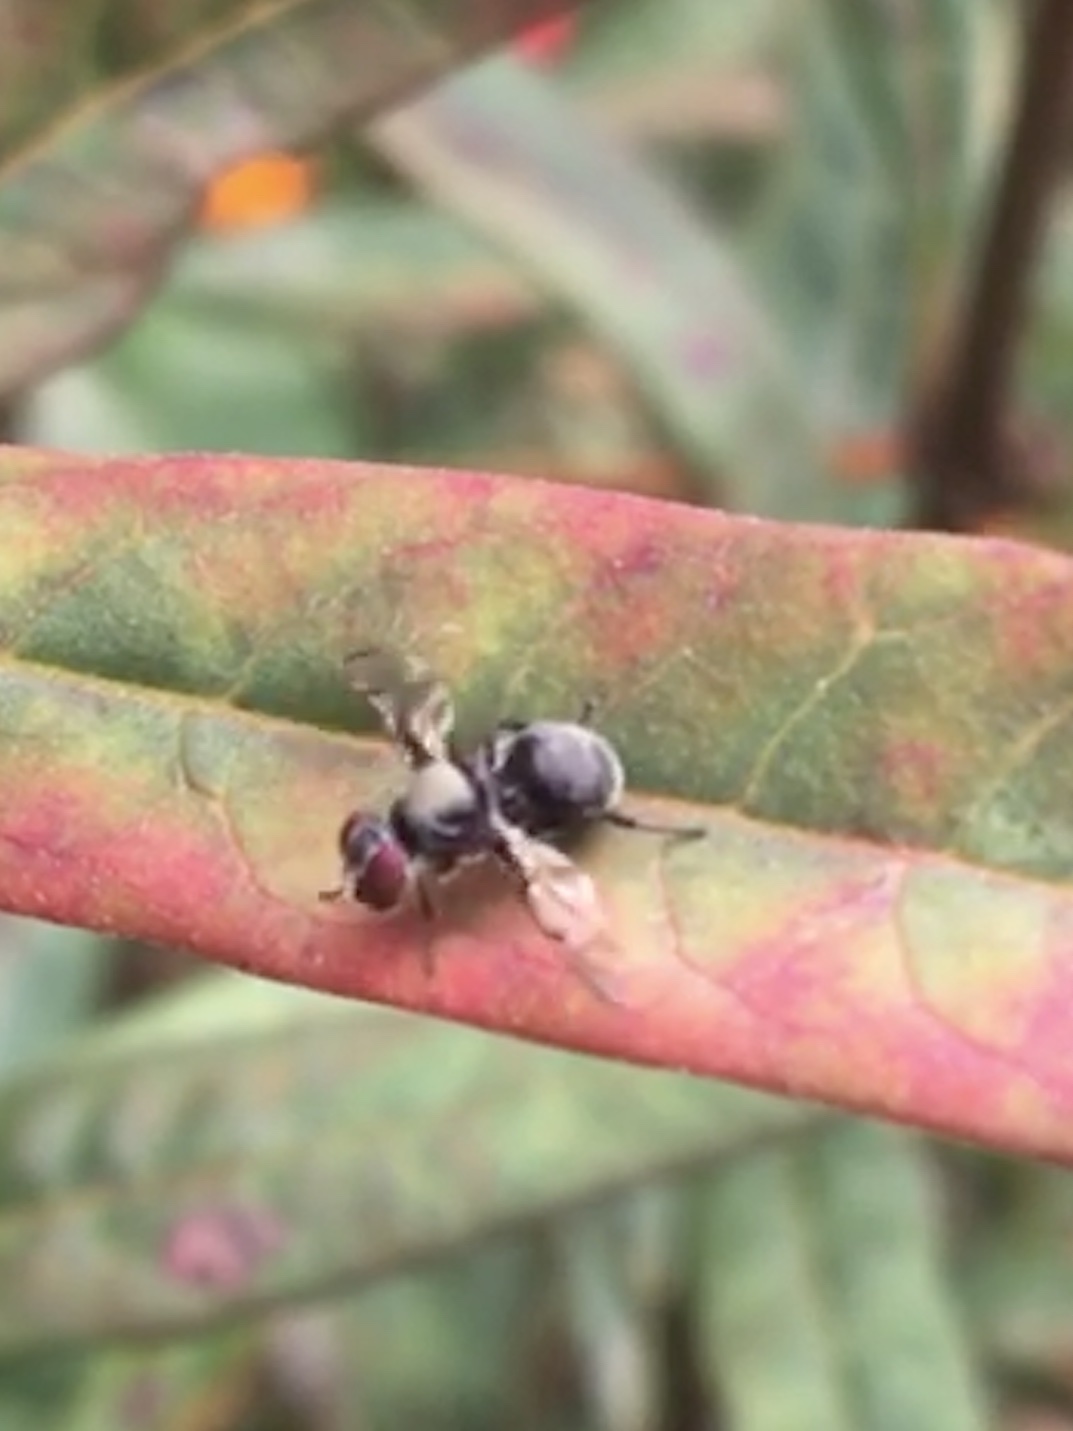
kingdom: Animalia
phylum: Arthropoda
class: Insecta
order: Diptera
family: Platystomatidae
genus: Pogonortalis
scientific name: Pogonortalis doclea
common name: Boatman fly
